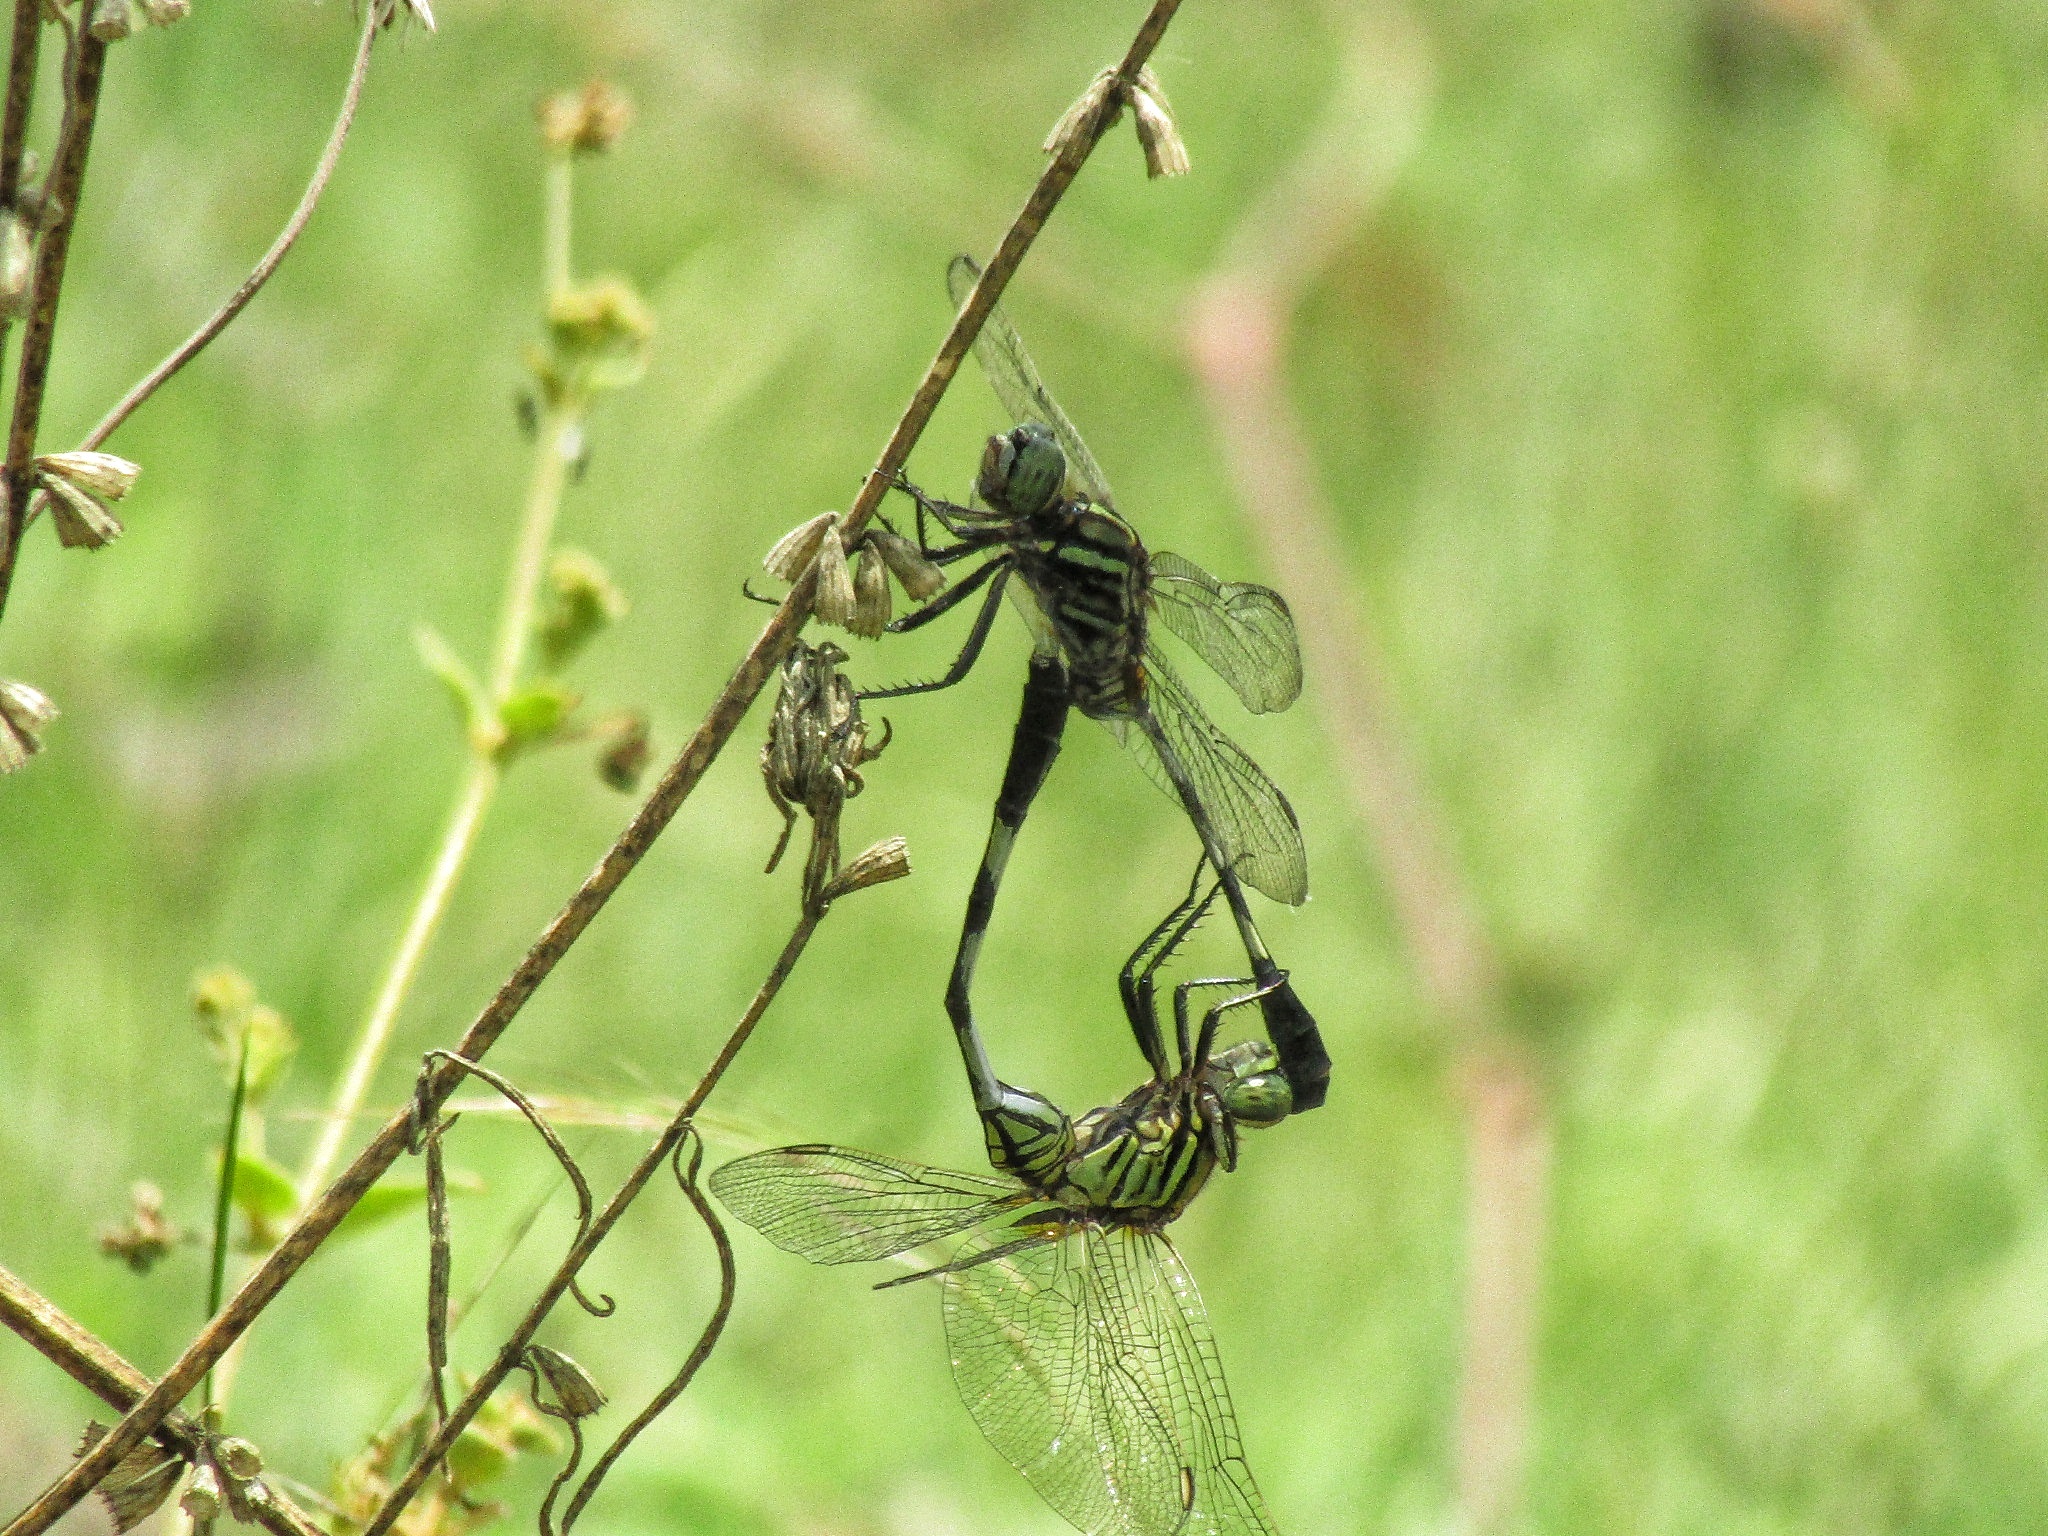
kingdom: Animalia
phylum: Arthropoda
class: Insecta
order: Odonata
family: Libellulidae
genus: Orthetrum
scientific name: Orthetrum sabina
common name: Slender skimmer
